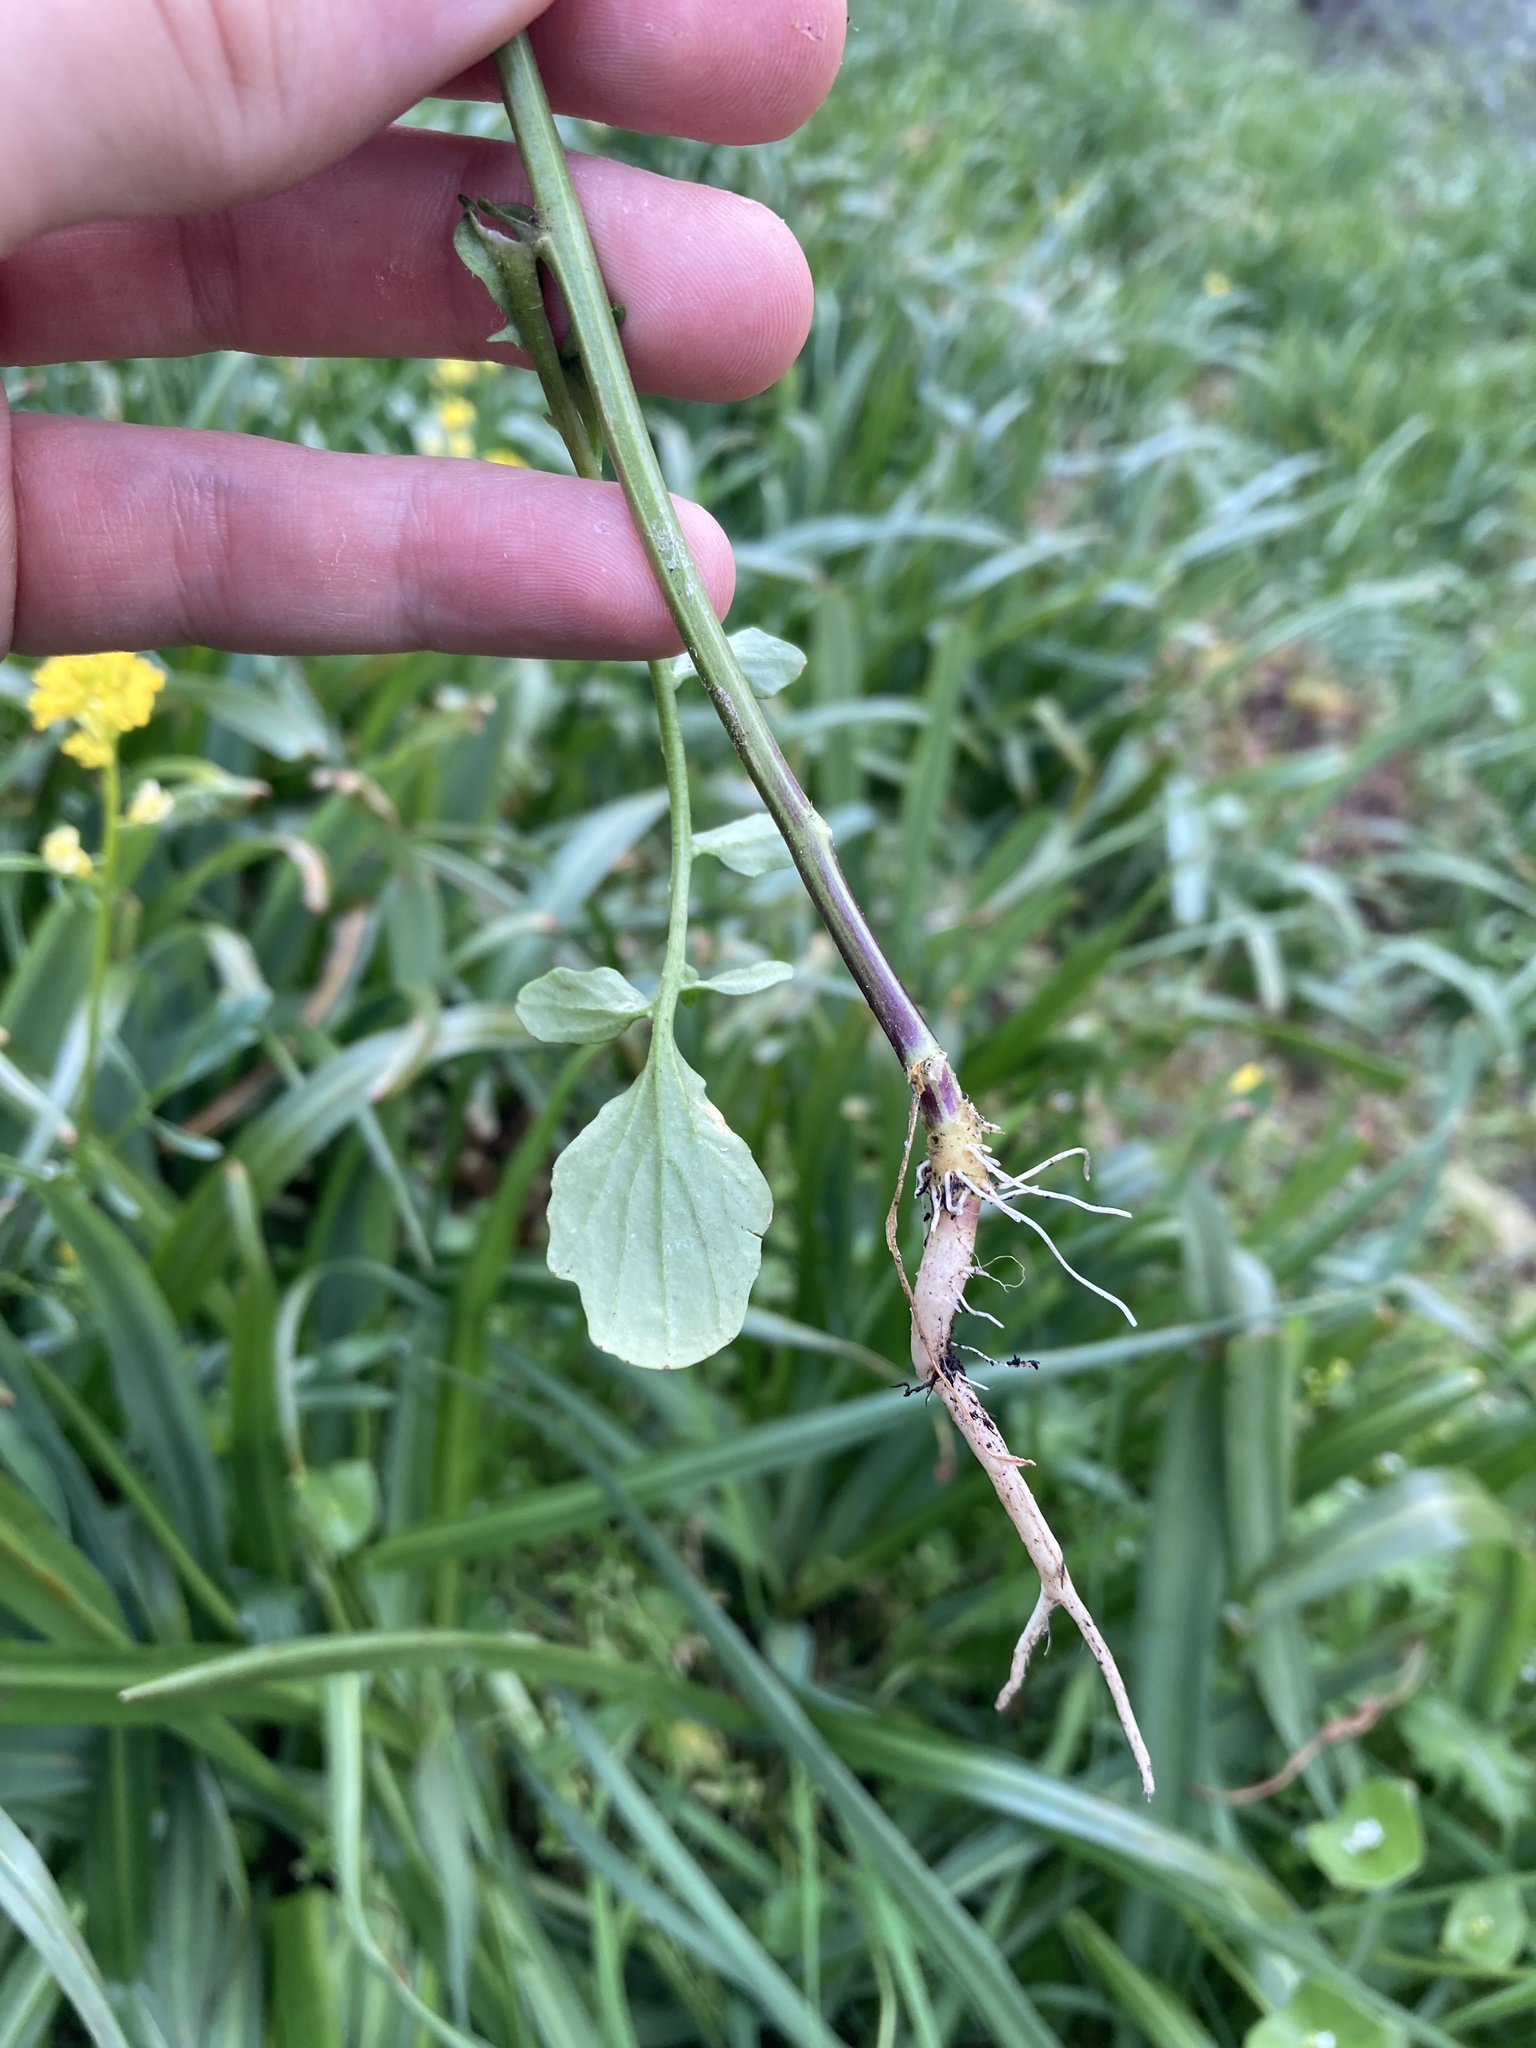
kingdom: Plantae
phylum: Tracheophyta
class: Magnoliopsida
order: Brassicales
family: Brassicaceae
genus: Barbarea
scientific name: Barbarea orthoceras
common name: American wintercress
